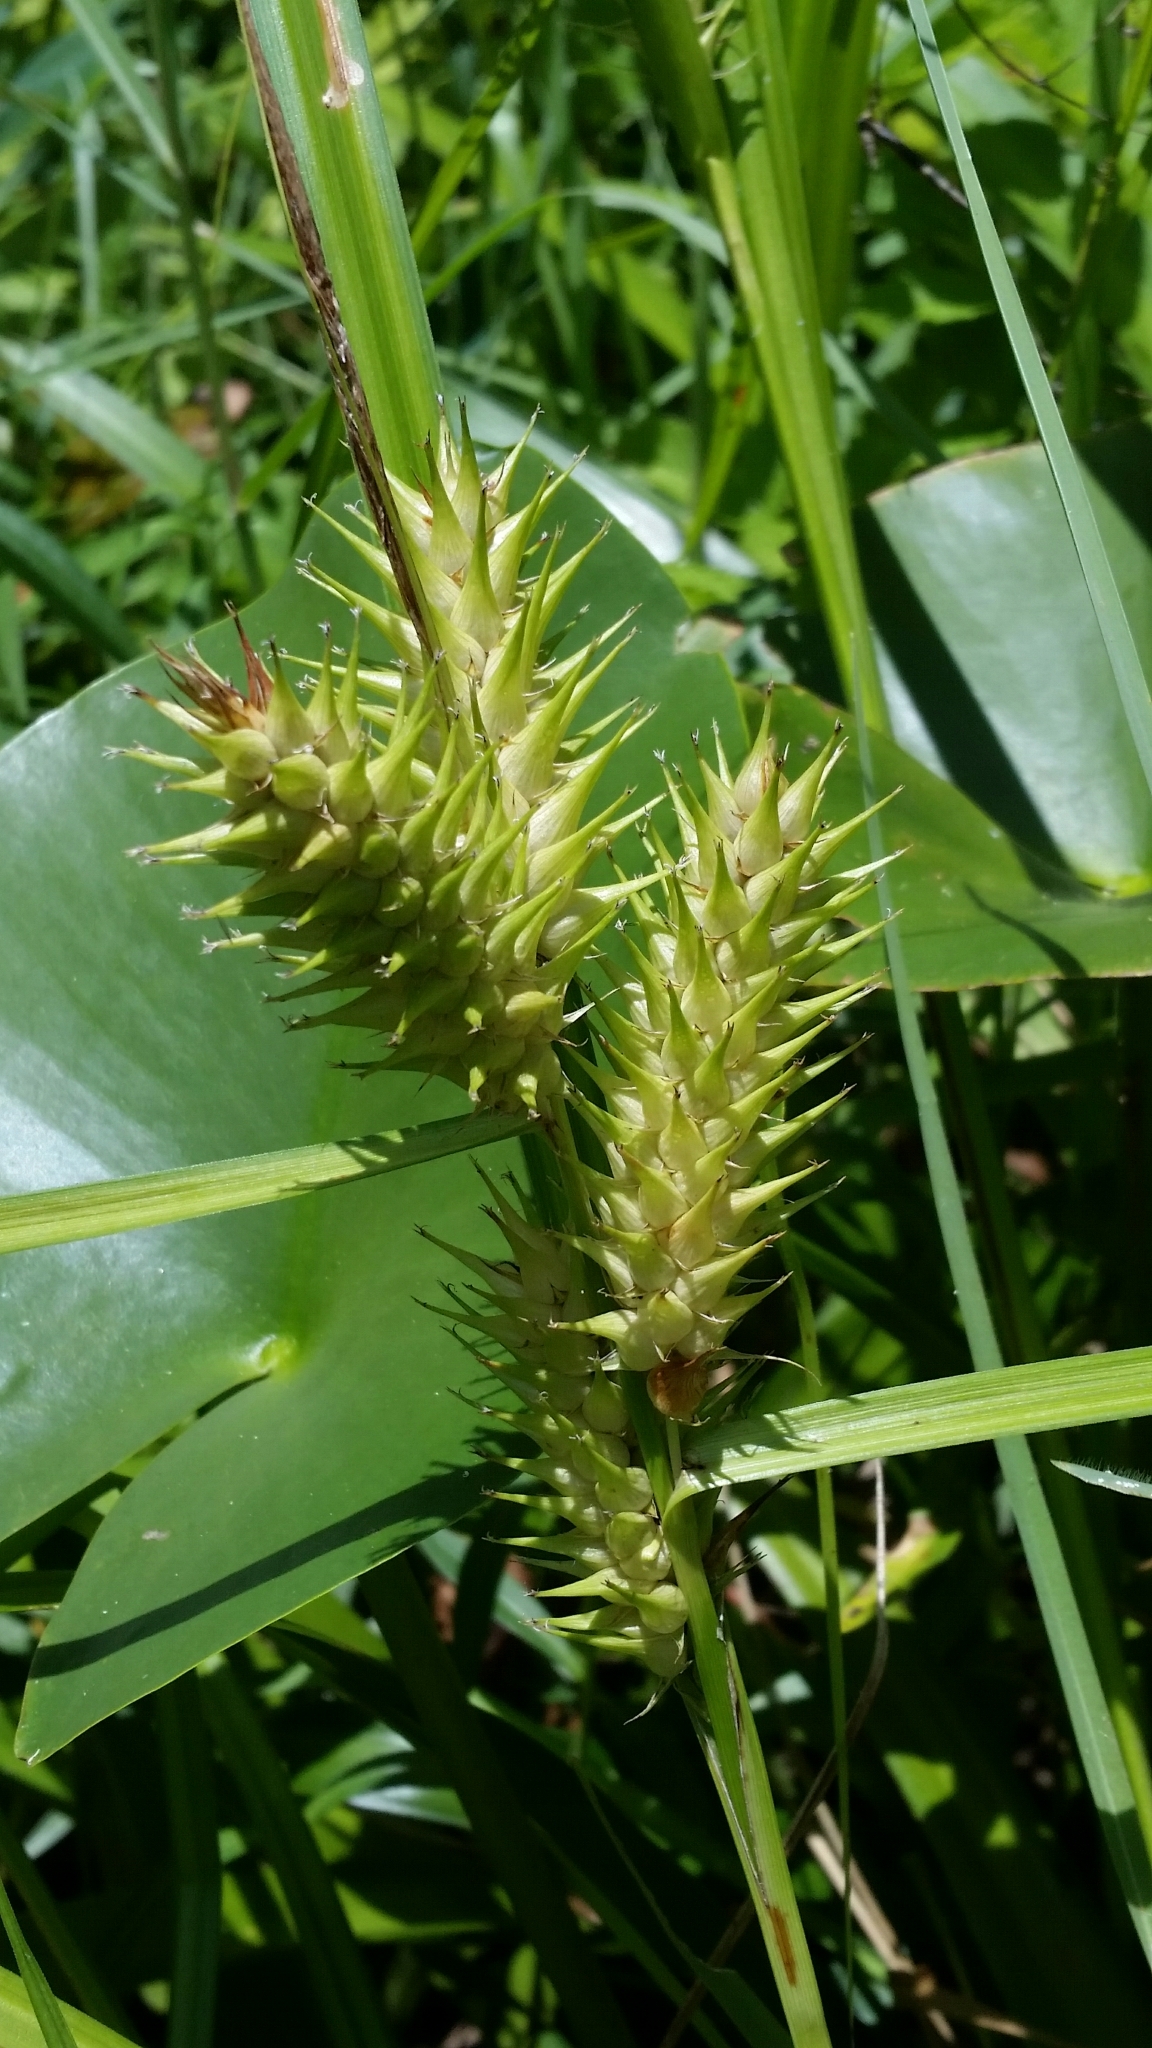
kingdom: Plantae
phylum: Tracheophyta
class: Liliopsida
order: Poales
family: Cyperaceae
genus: Carex
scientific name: Carex lupuliformis
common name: False hop sedge
